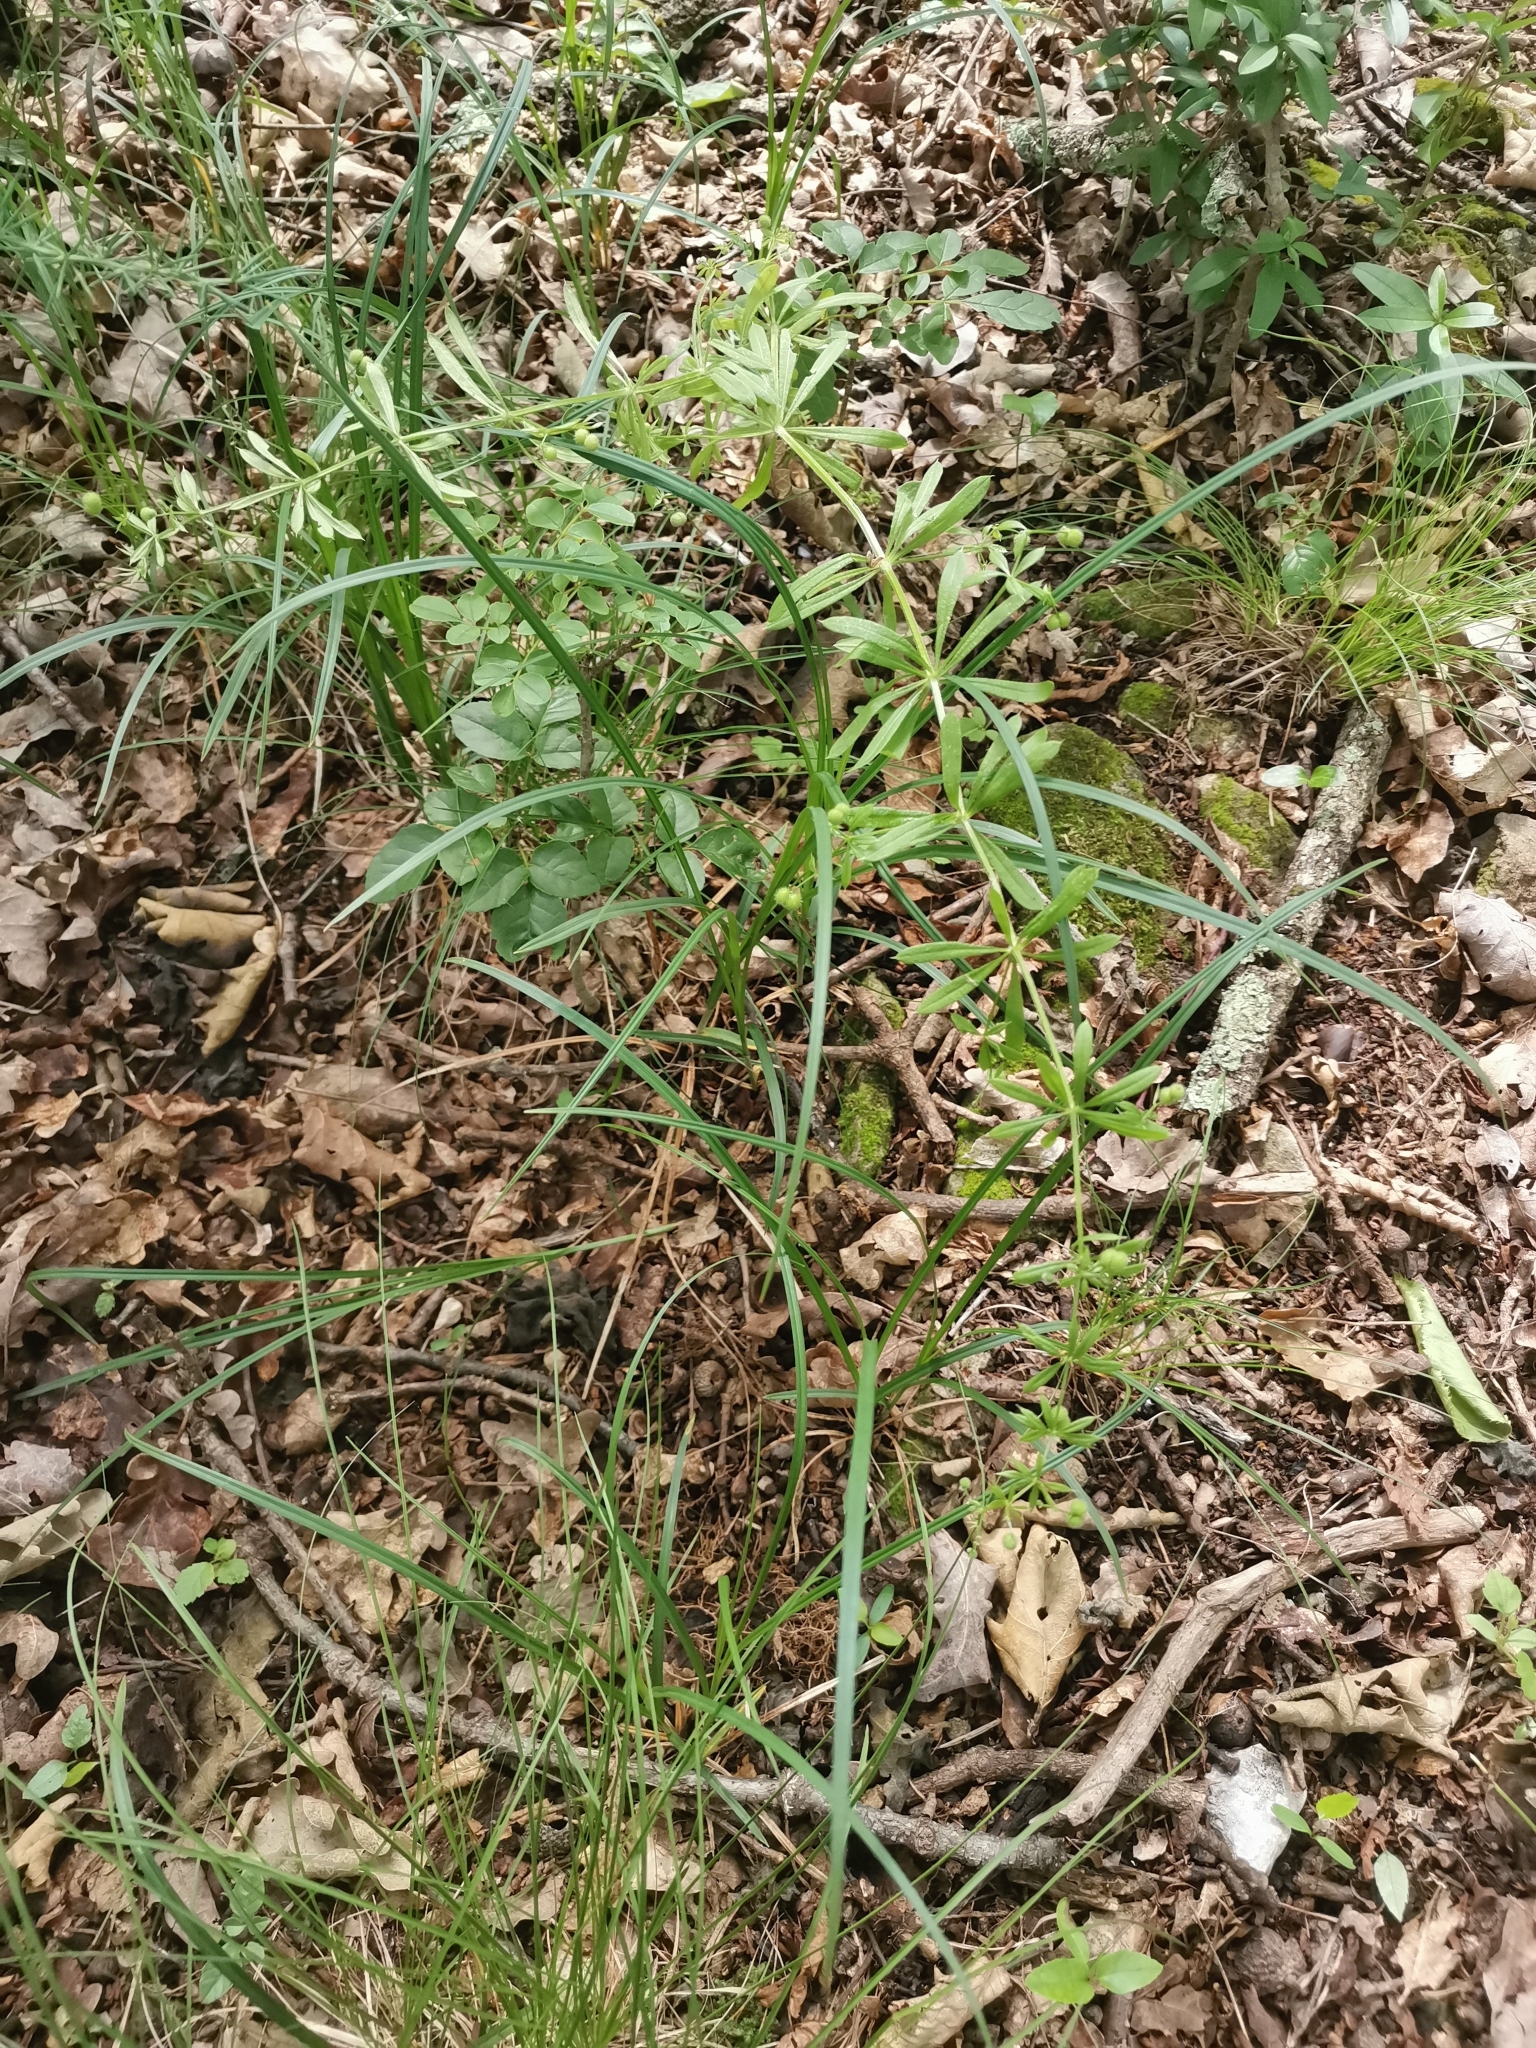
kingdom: Plantae
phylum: Tracheophyta
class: Magnoliopsida
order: Gentianales
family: Rubiaceae
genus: Galium
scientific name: Galium aparine
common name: Cleavers
